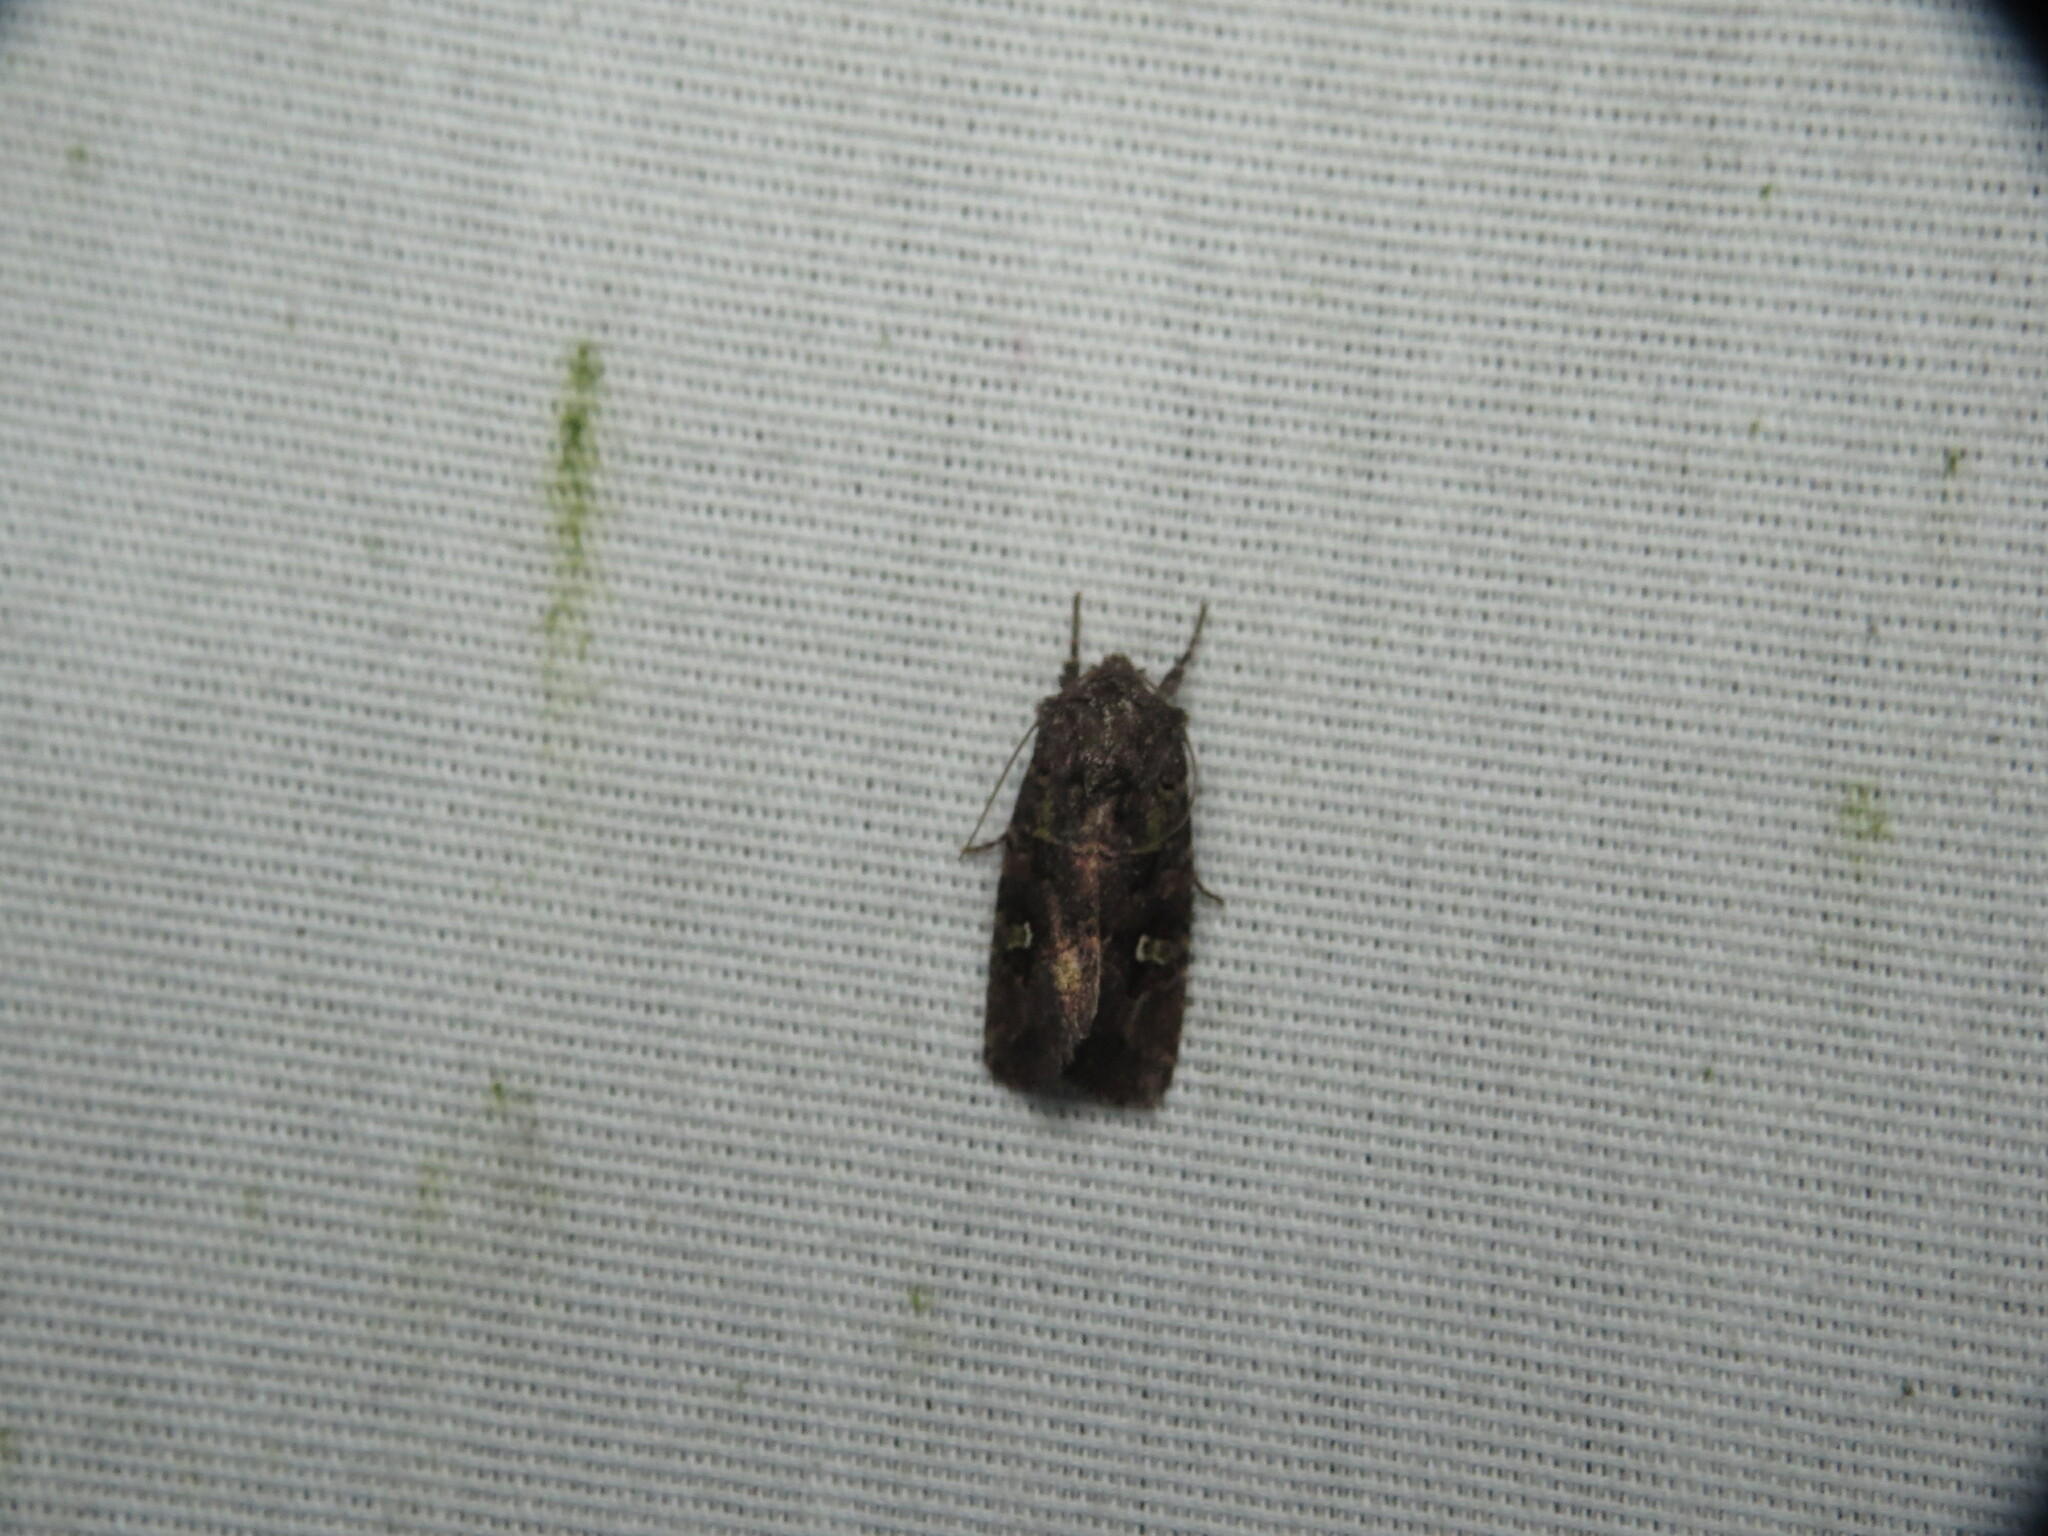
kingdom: Animalia
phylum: Arthropoda
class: Insecta
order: Lepidoptera
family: Noctuidae
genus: Lacinipolia
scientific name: Lacinipolia renigera
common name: Kidney-spotted minor
